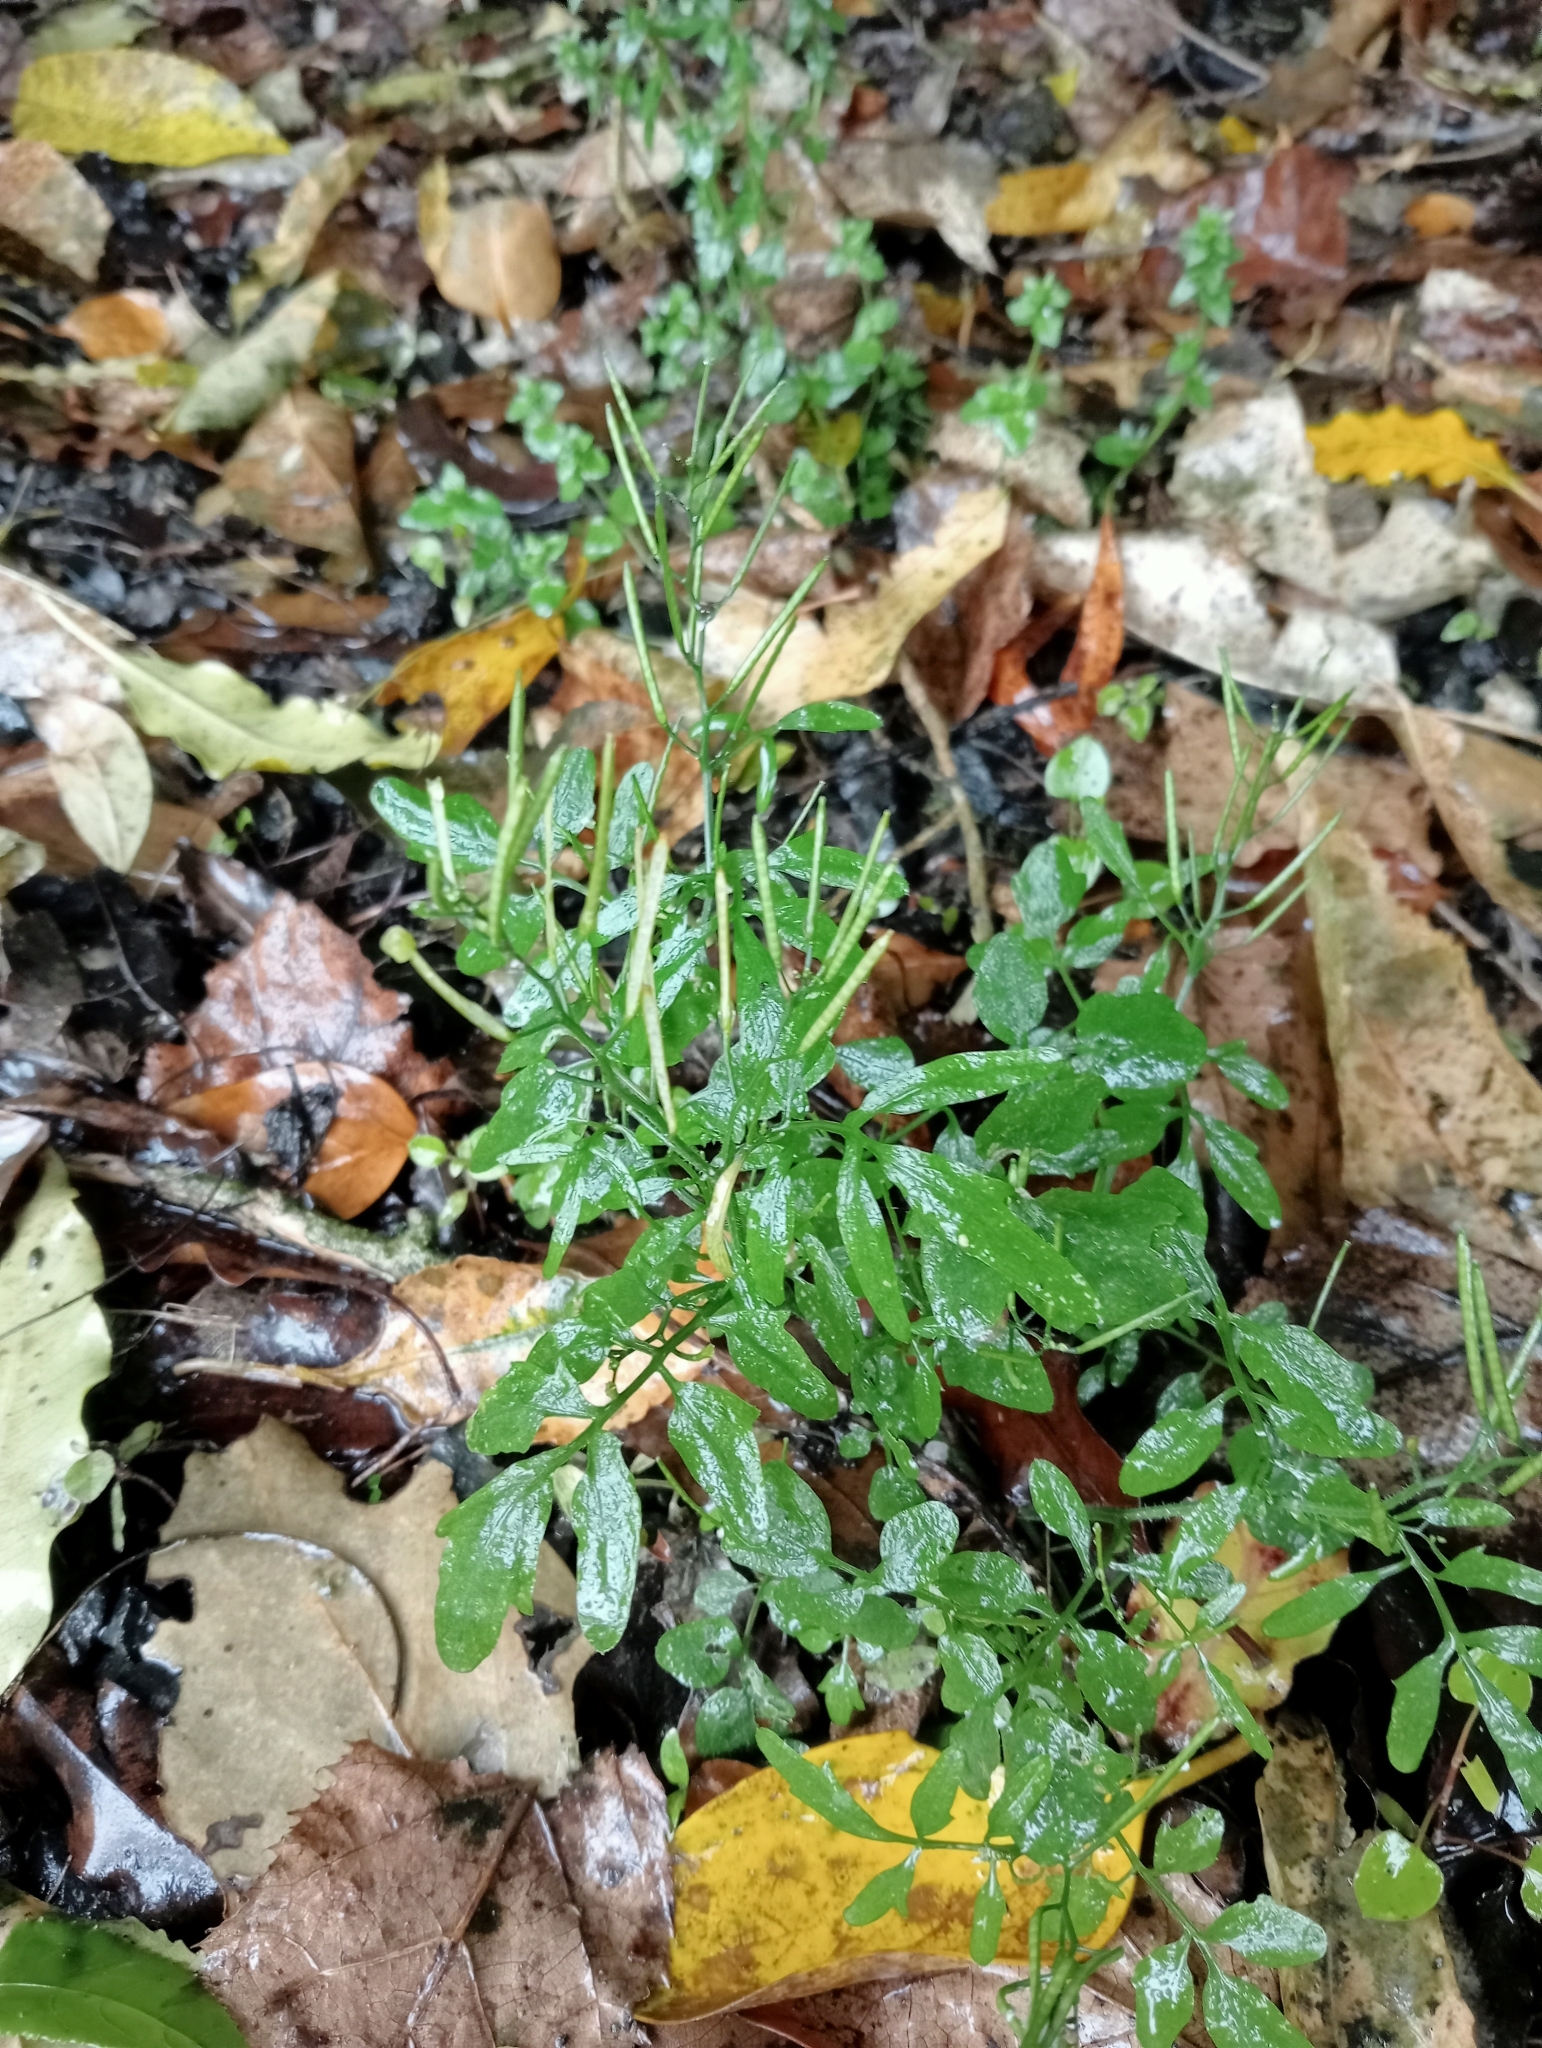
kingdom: Plantae
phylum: Tracheophyta
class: Magnoliopsida
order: Brassicales
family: Brassicaceae
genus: Cardamine
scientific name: Cardamine flexuosa
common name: Woodland bittercress
